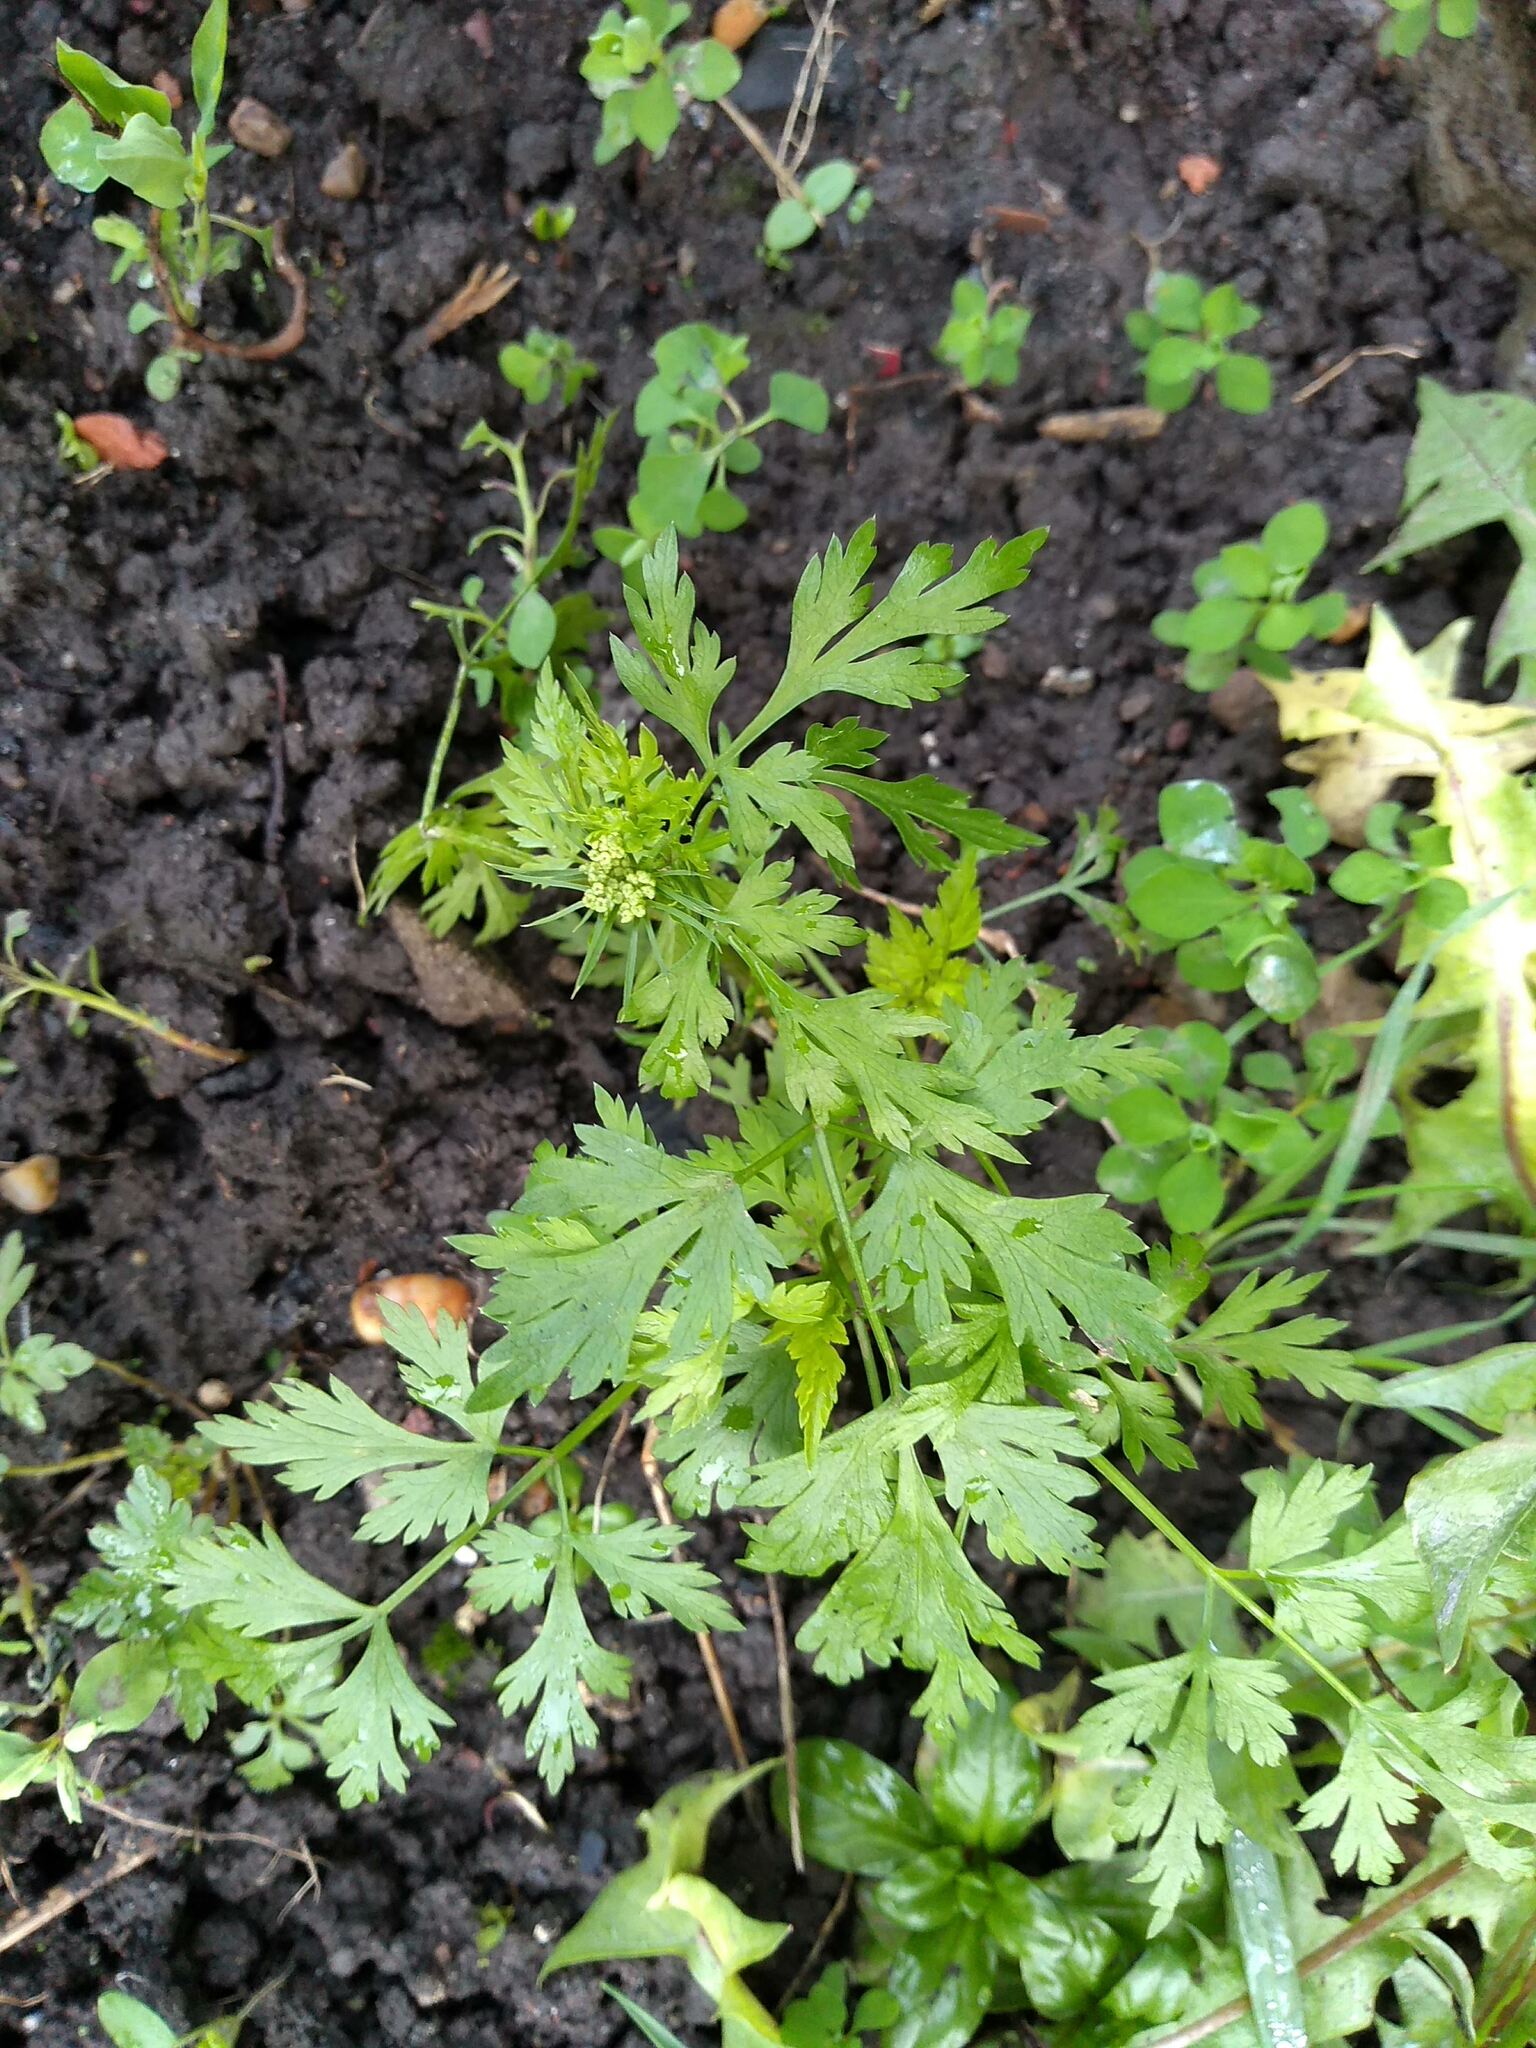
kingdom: Plantae
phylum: Tracheophyta
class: Magnoliopsida
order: Apiales
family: Apiaceae
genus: Aethusa
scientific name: Aethusa cynapium
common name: Fool's parsley
